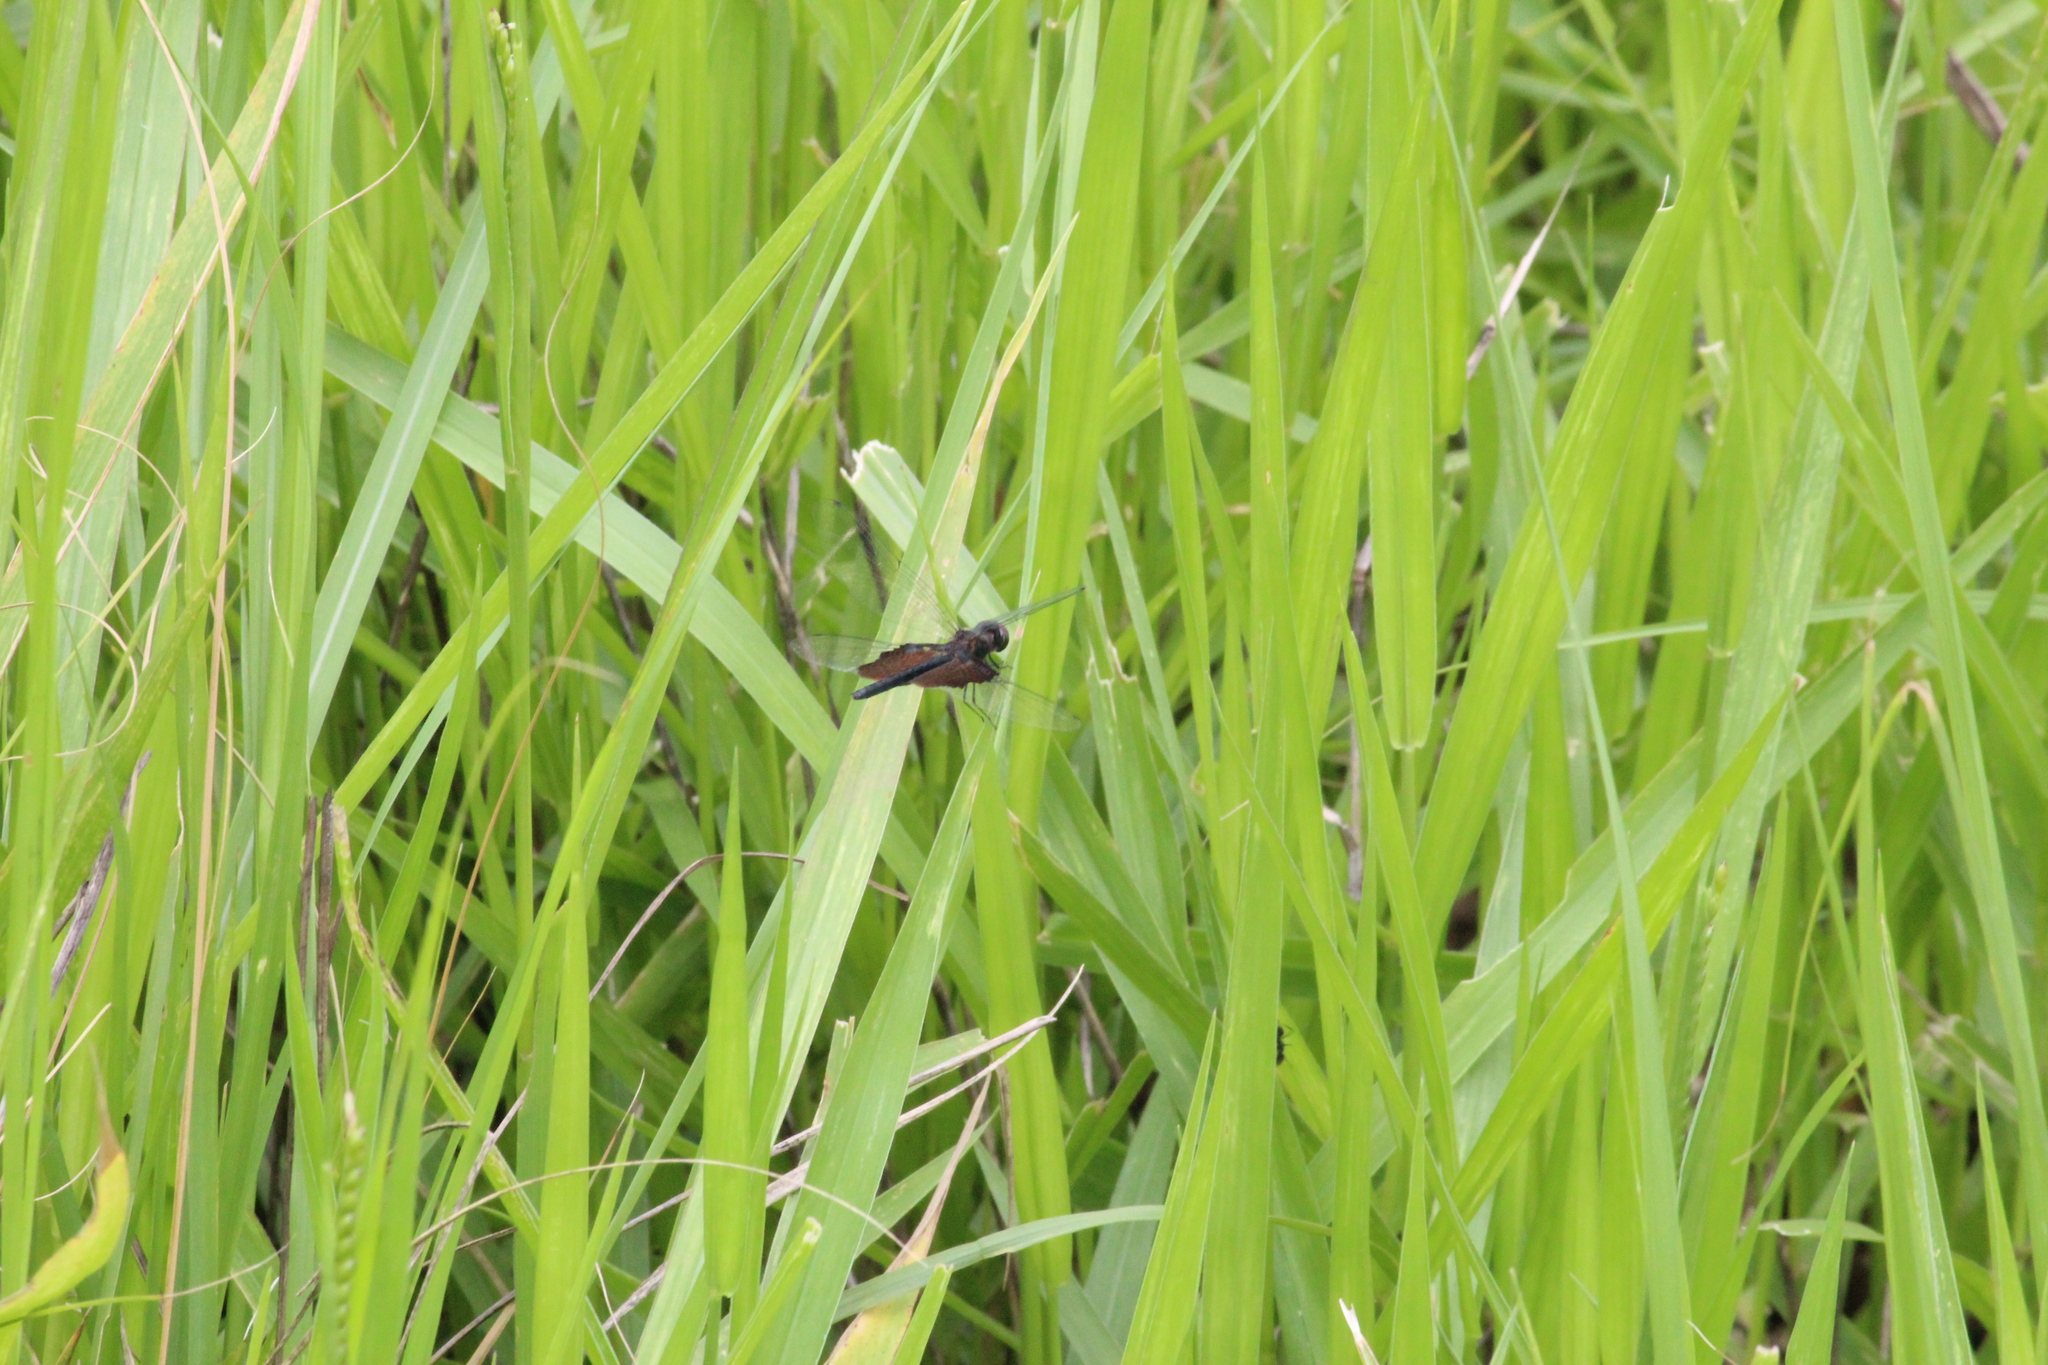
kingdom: Animalia
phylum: Arthropoda
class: Insecta
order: Odonata
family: Libellulidae
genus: Rhyothemis
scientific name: Rhyothemis semihyalina
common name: Phantom flutterer
